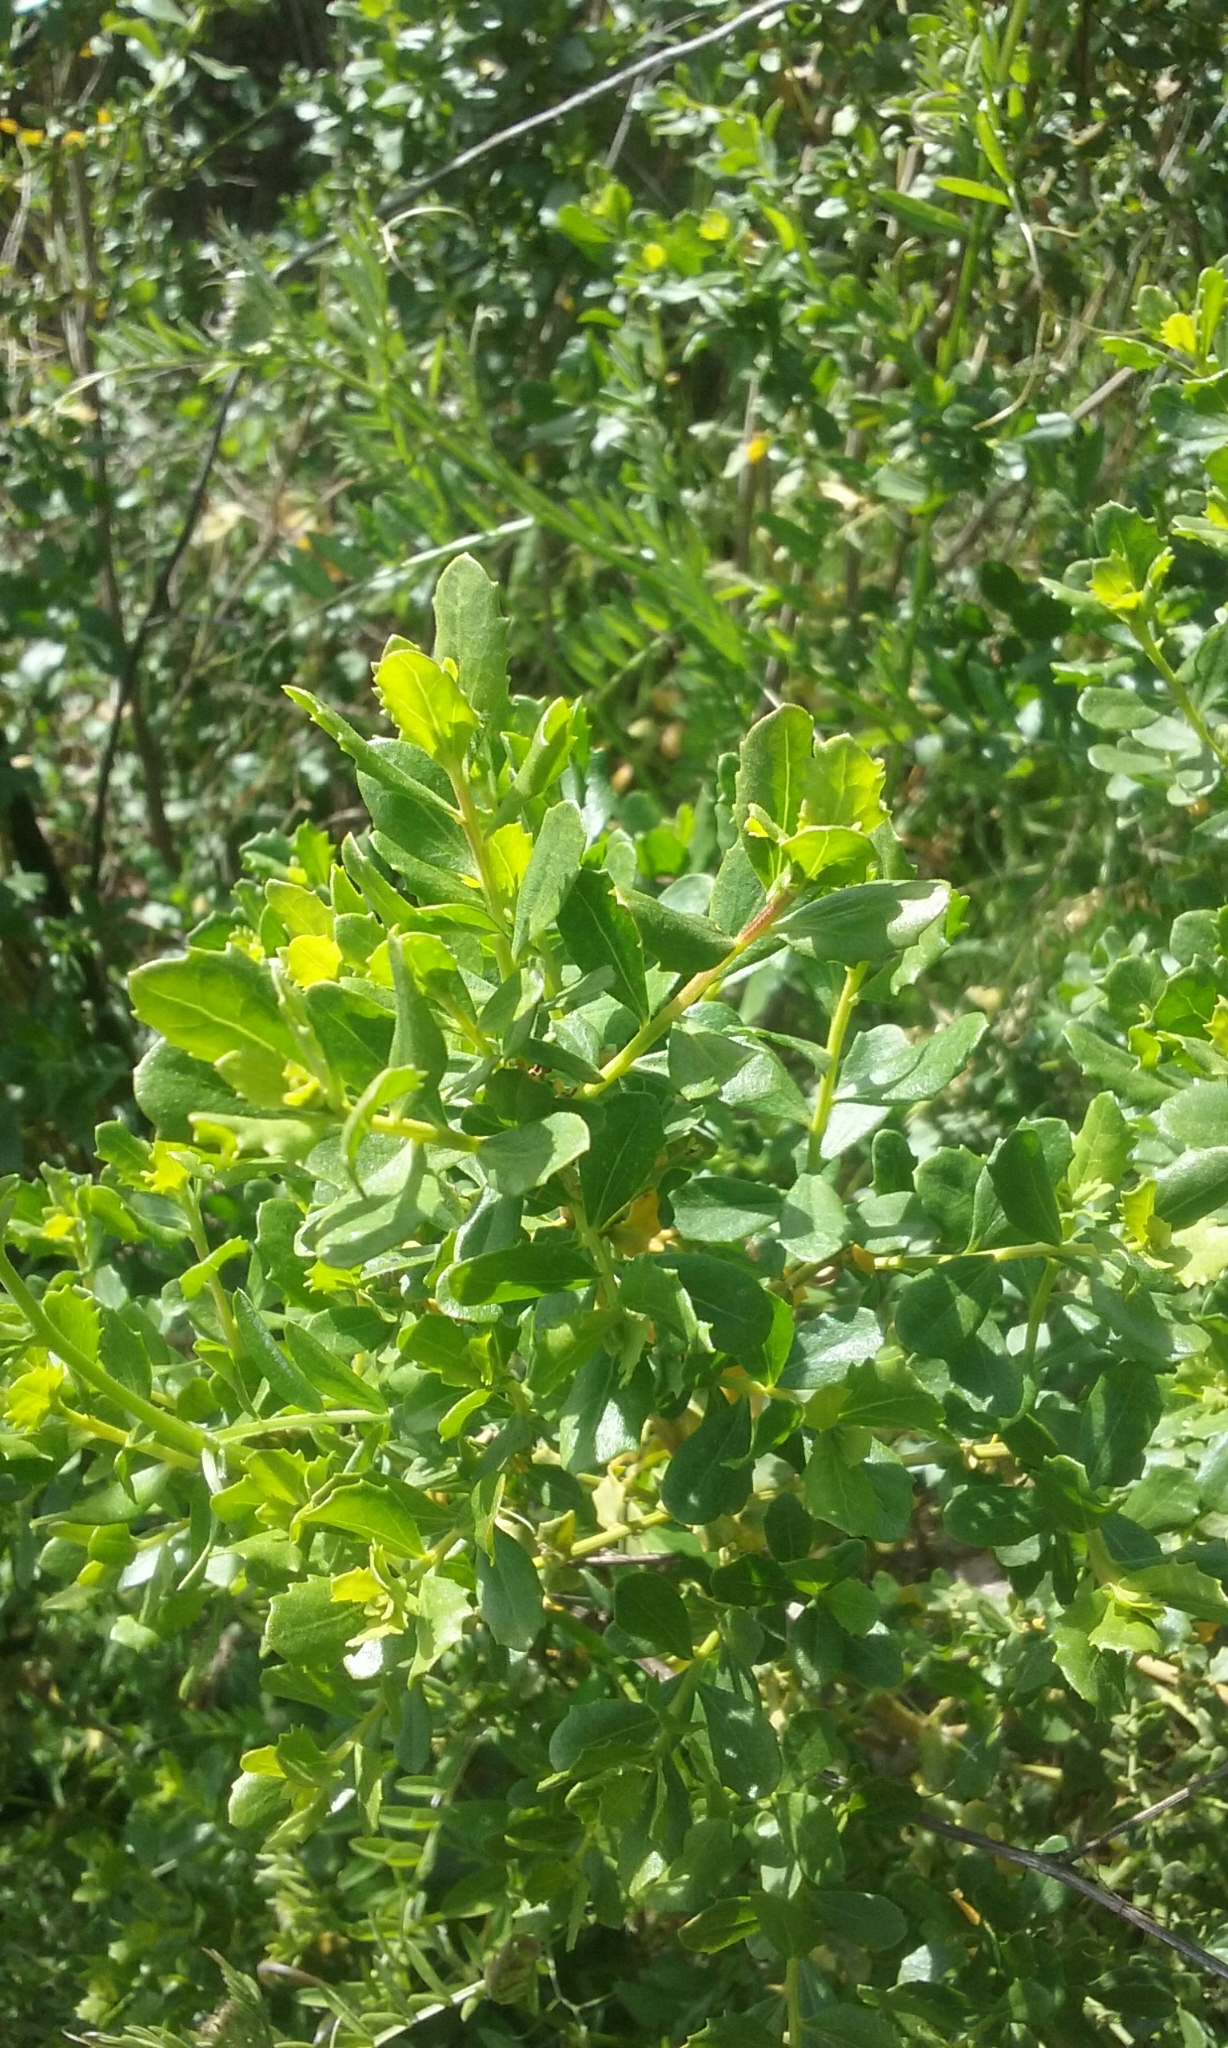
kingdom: Plantae
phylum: Tracheophyta
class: Magnoliopsida
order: Asterales
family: Asteraceae
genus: Baccharis
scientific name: Baccharis pilularis
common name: Coyotebrush
